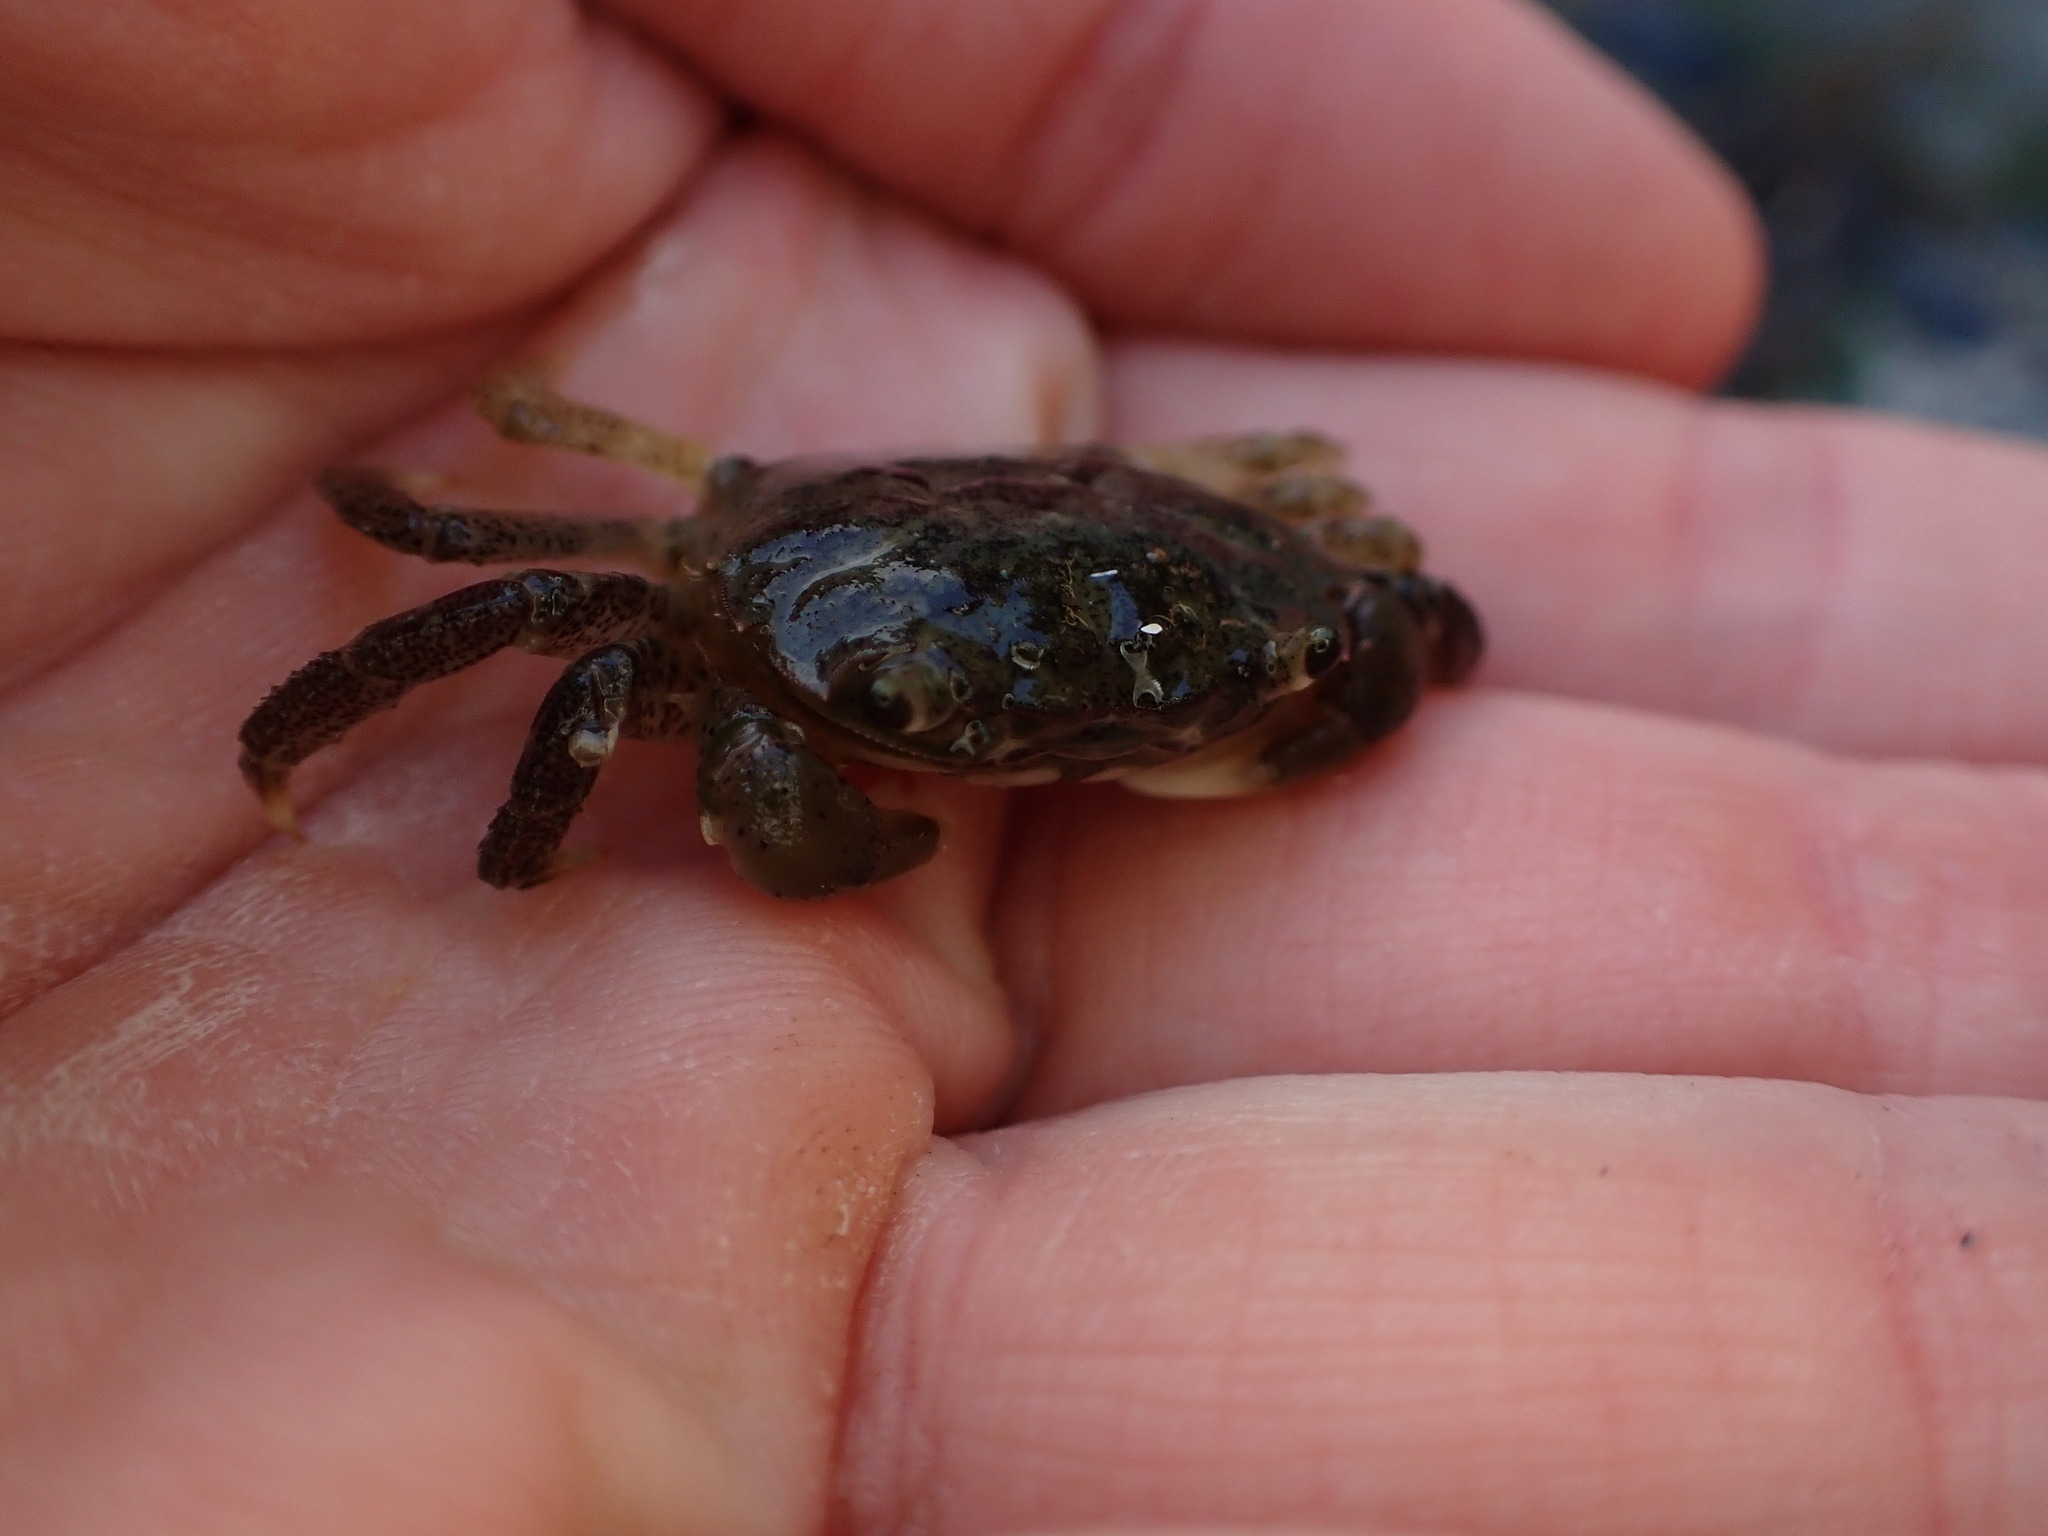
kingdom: Animalia
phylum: Arthropoda
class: Malacostraca
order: Decapoda
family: Varunidae
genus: Hemigrapsus
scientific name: Hemigrapsus oregonensis
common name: Yellow shore crab
